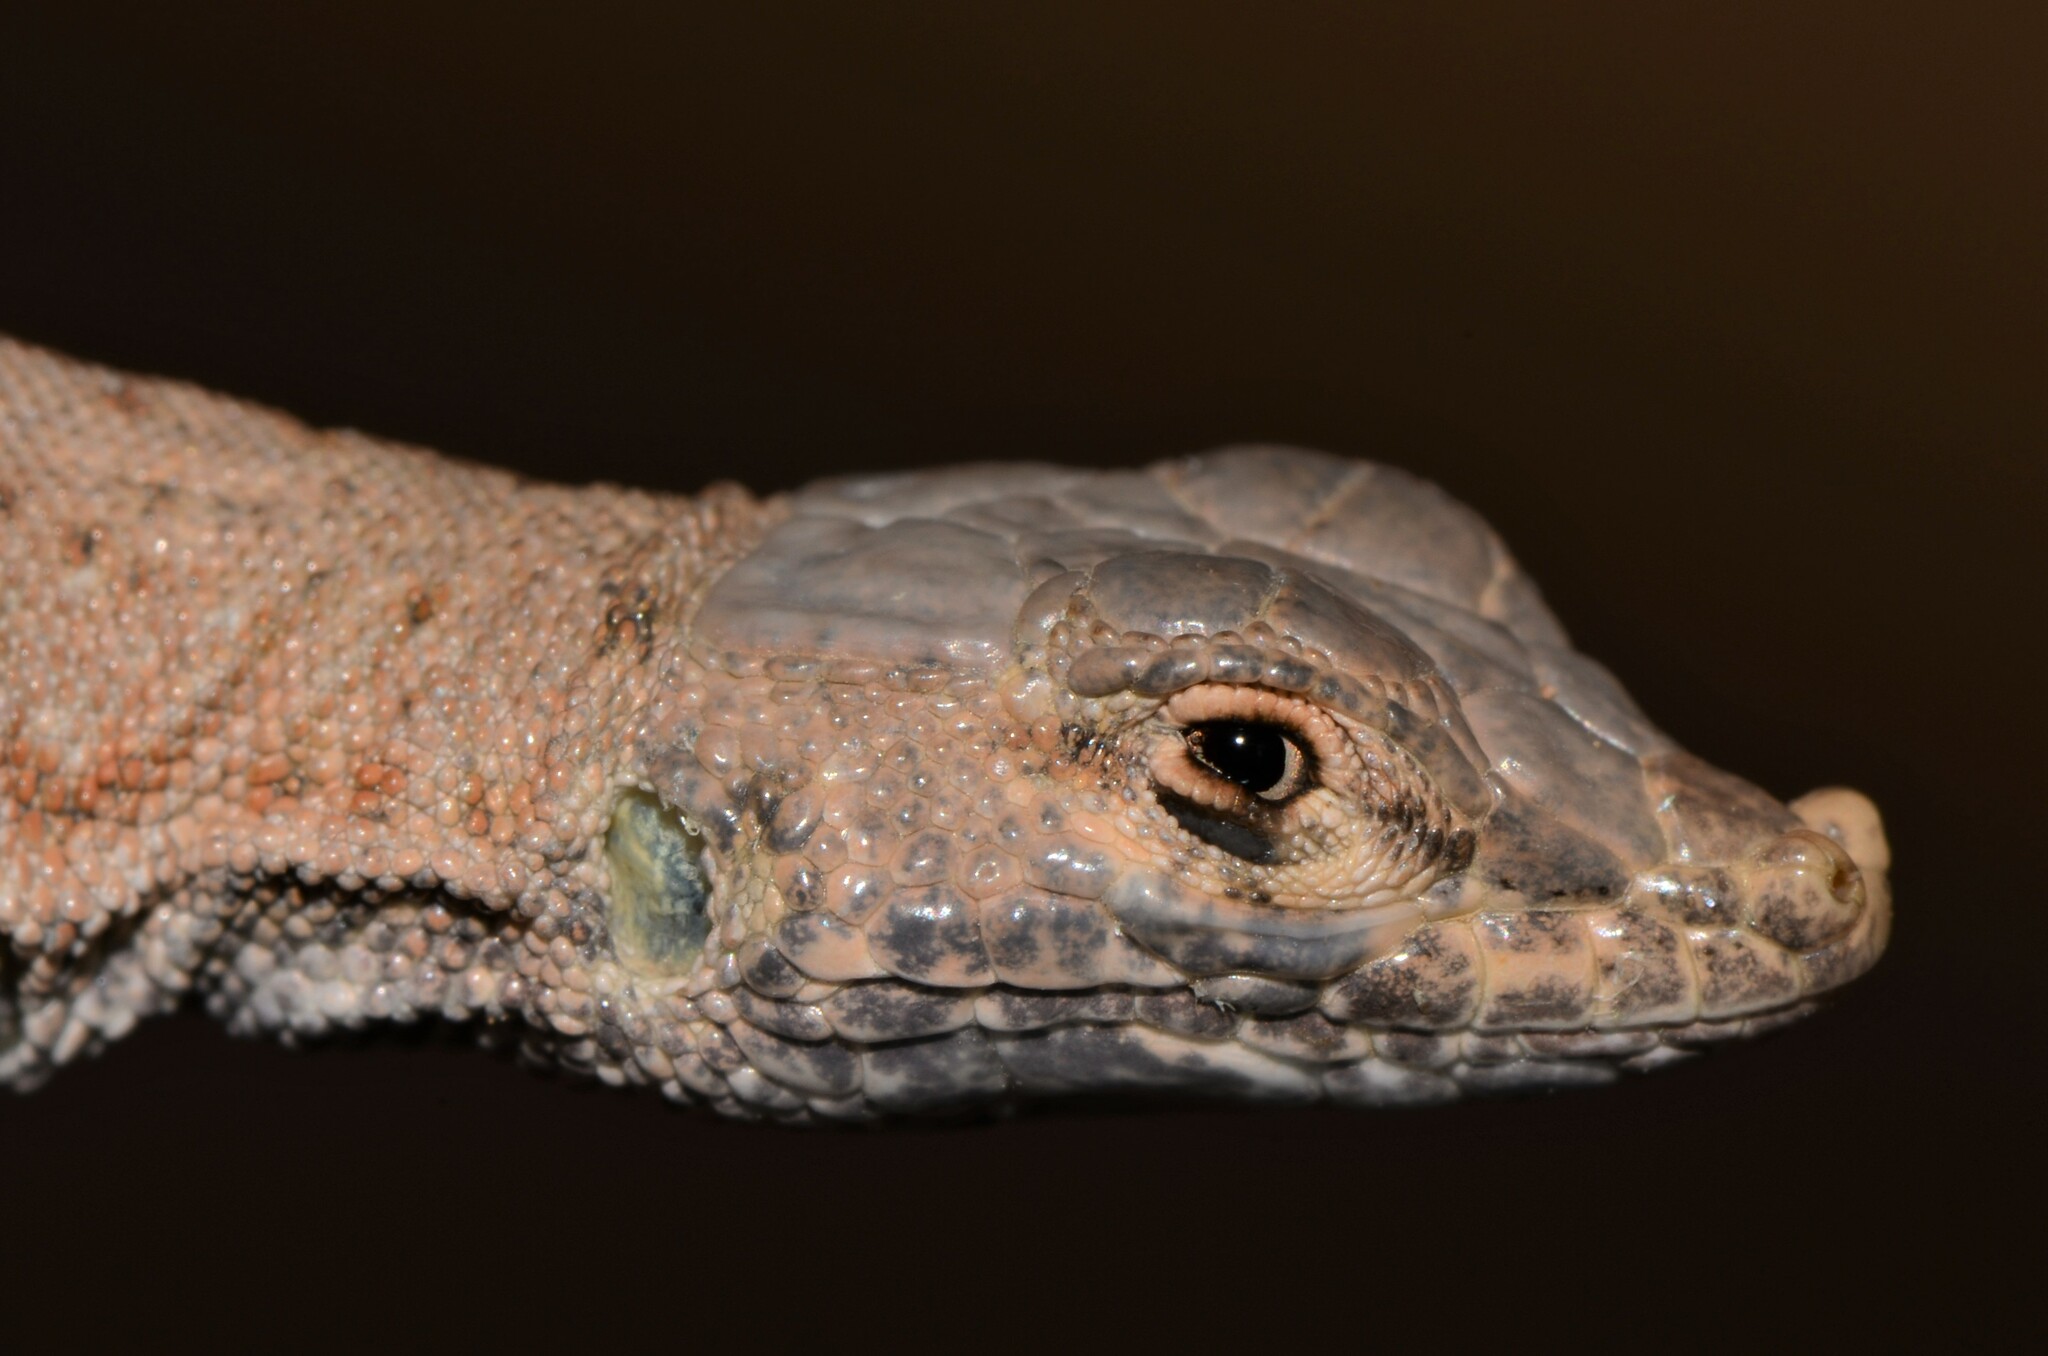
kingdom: Animalia
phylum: Chordata
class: Squamata
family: Lacertidae
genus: Mesalina
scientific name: Mesalina brevirostris
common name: Blanford's short-nosed desert lizard
